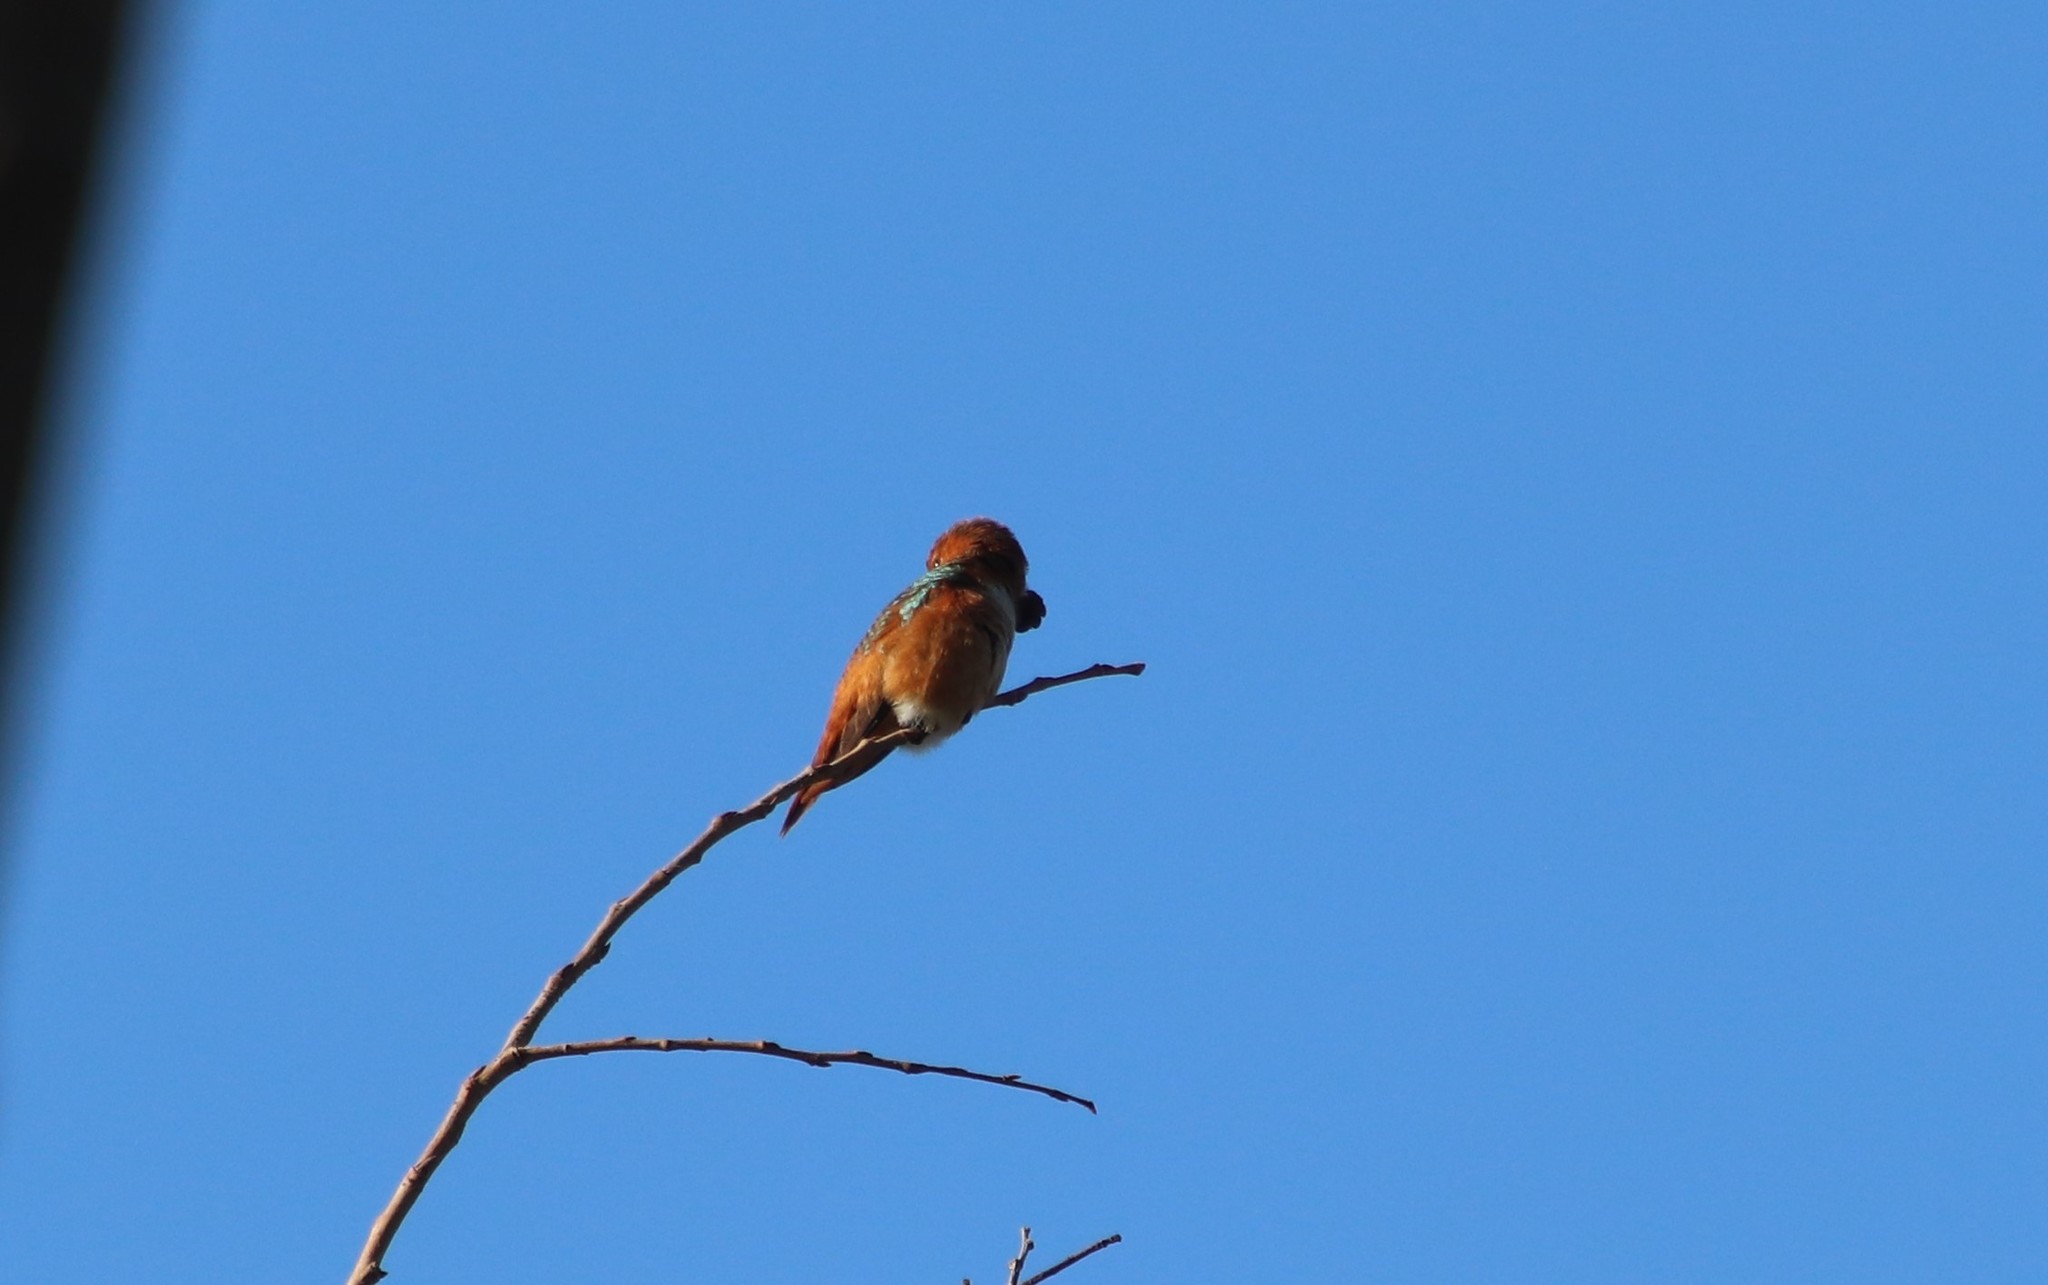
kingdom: Animalia
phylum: Chordata
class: Aves
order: Apodiformes
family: Trochilidae
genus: Selasphorus
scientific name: Selasphorus sasin
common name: Allen's hummingbird
